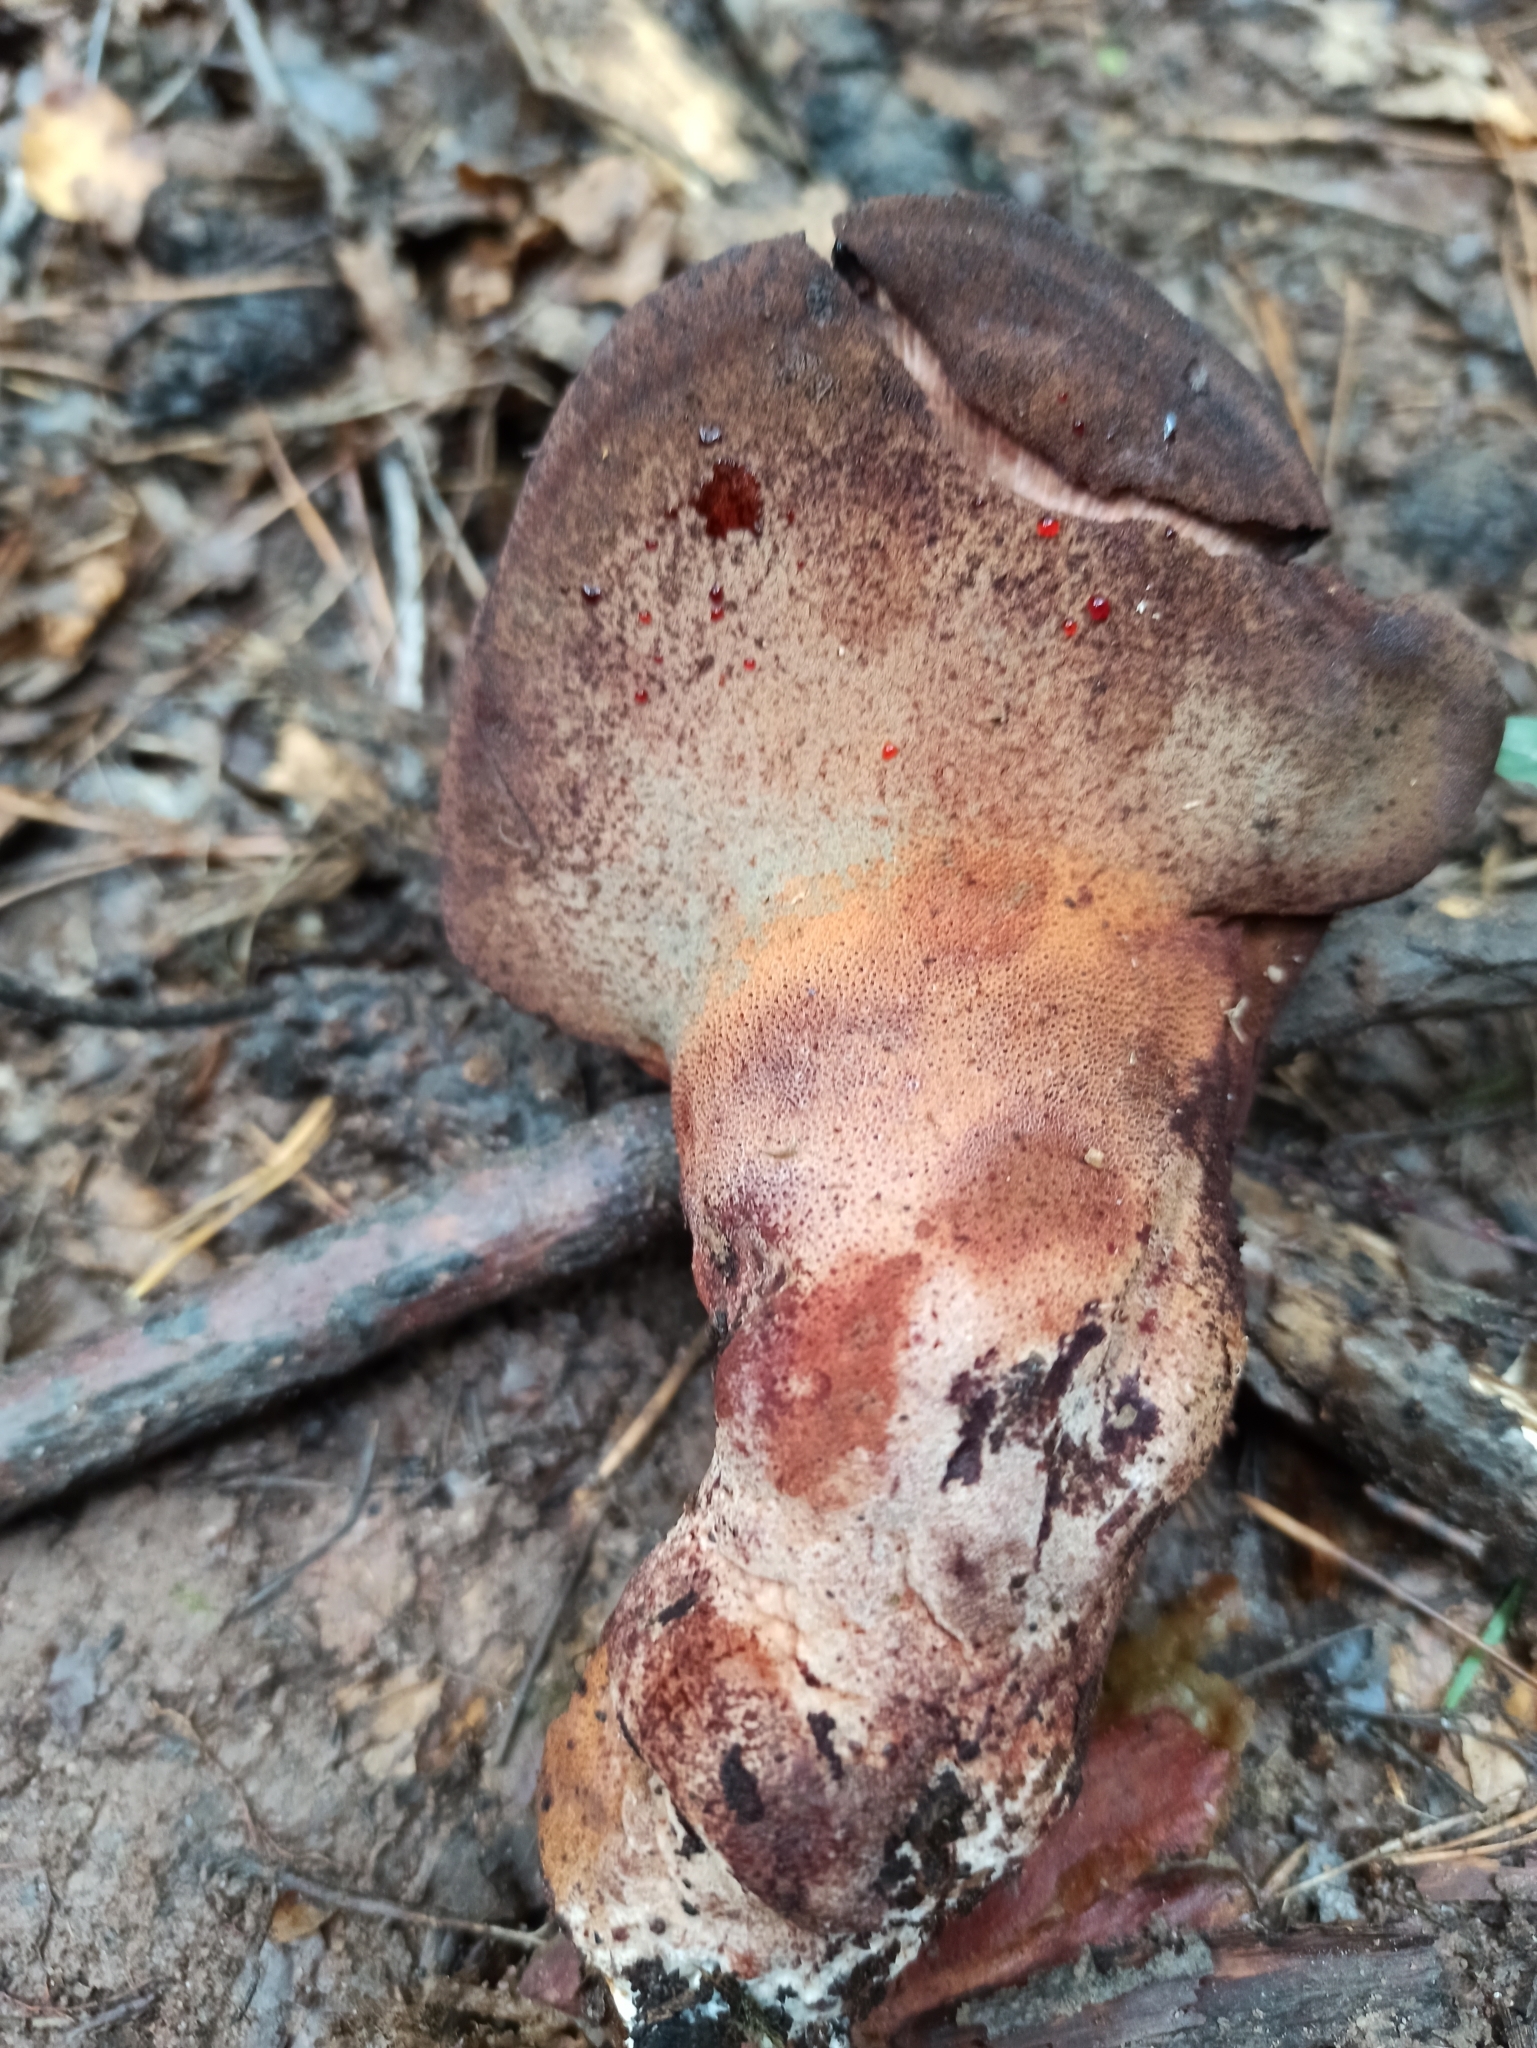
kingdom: Fungi
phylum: Basidiomycota
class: Agaricomycetes
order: Agaricales
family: Fistulinaceae
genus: Fistulina
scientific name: Fistulina hepatica
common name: Beef-steak fungus
